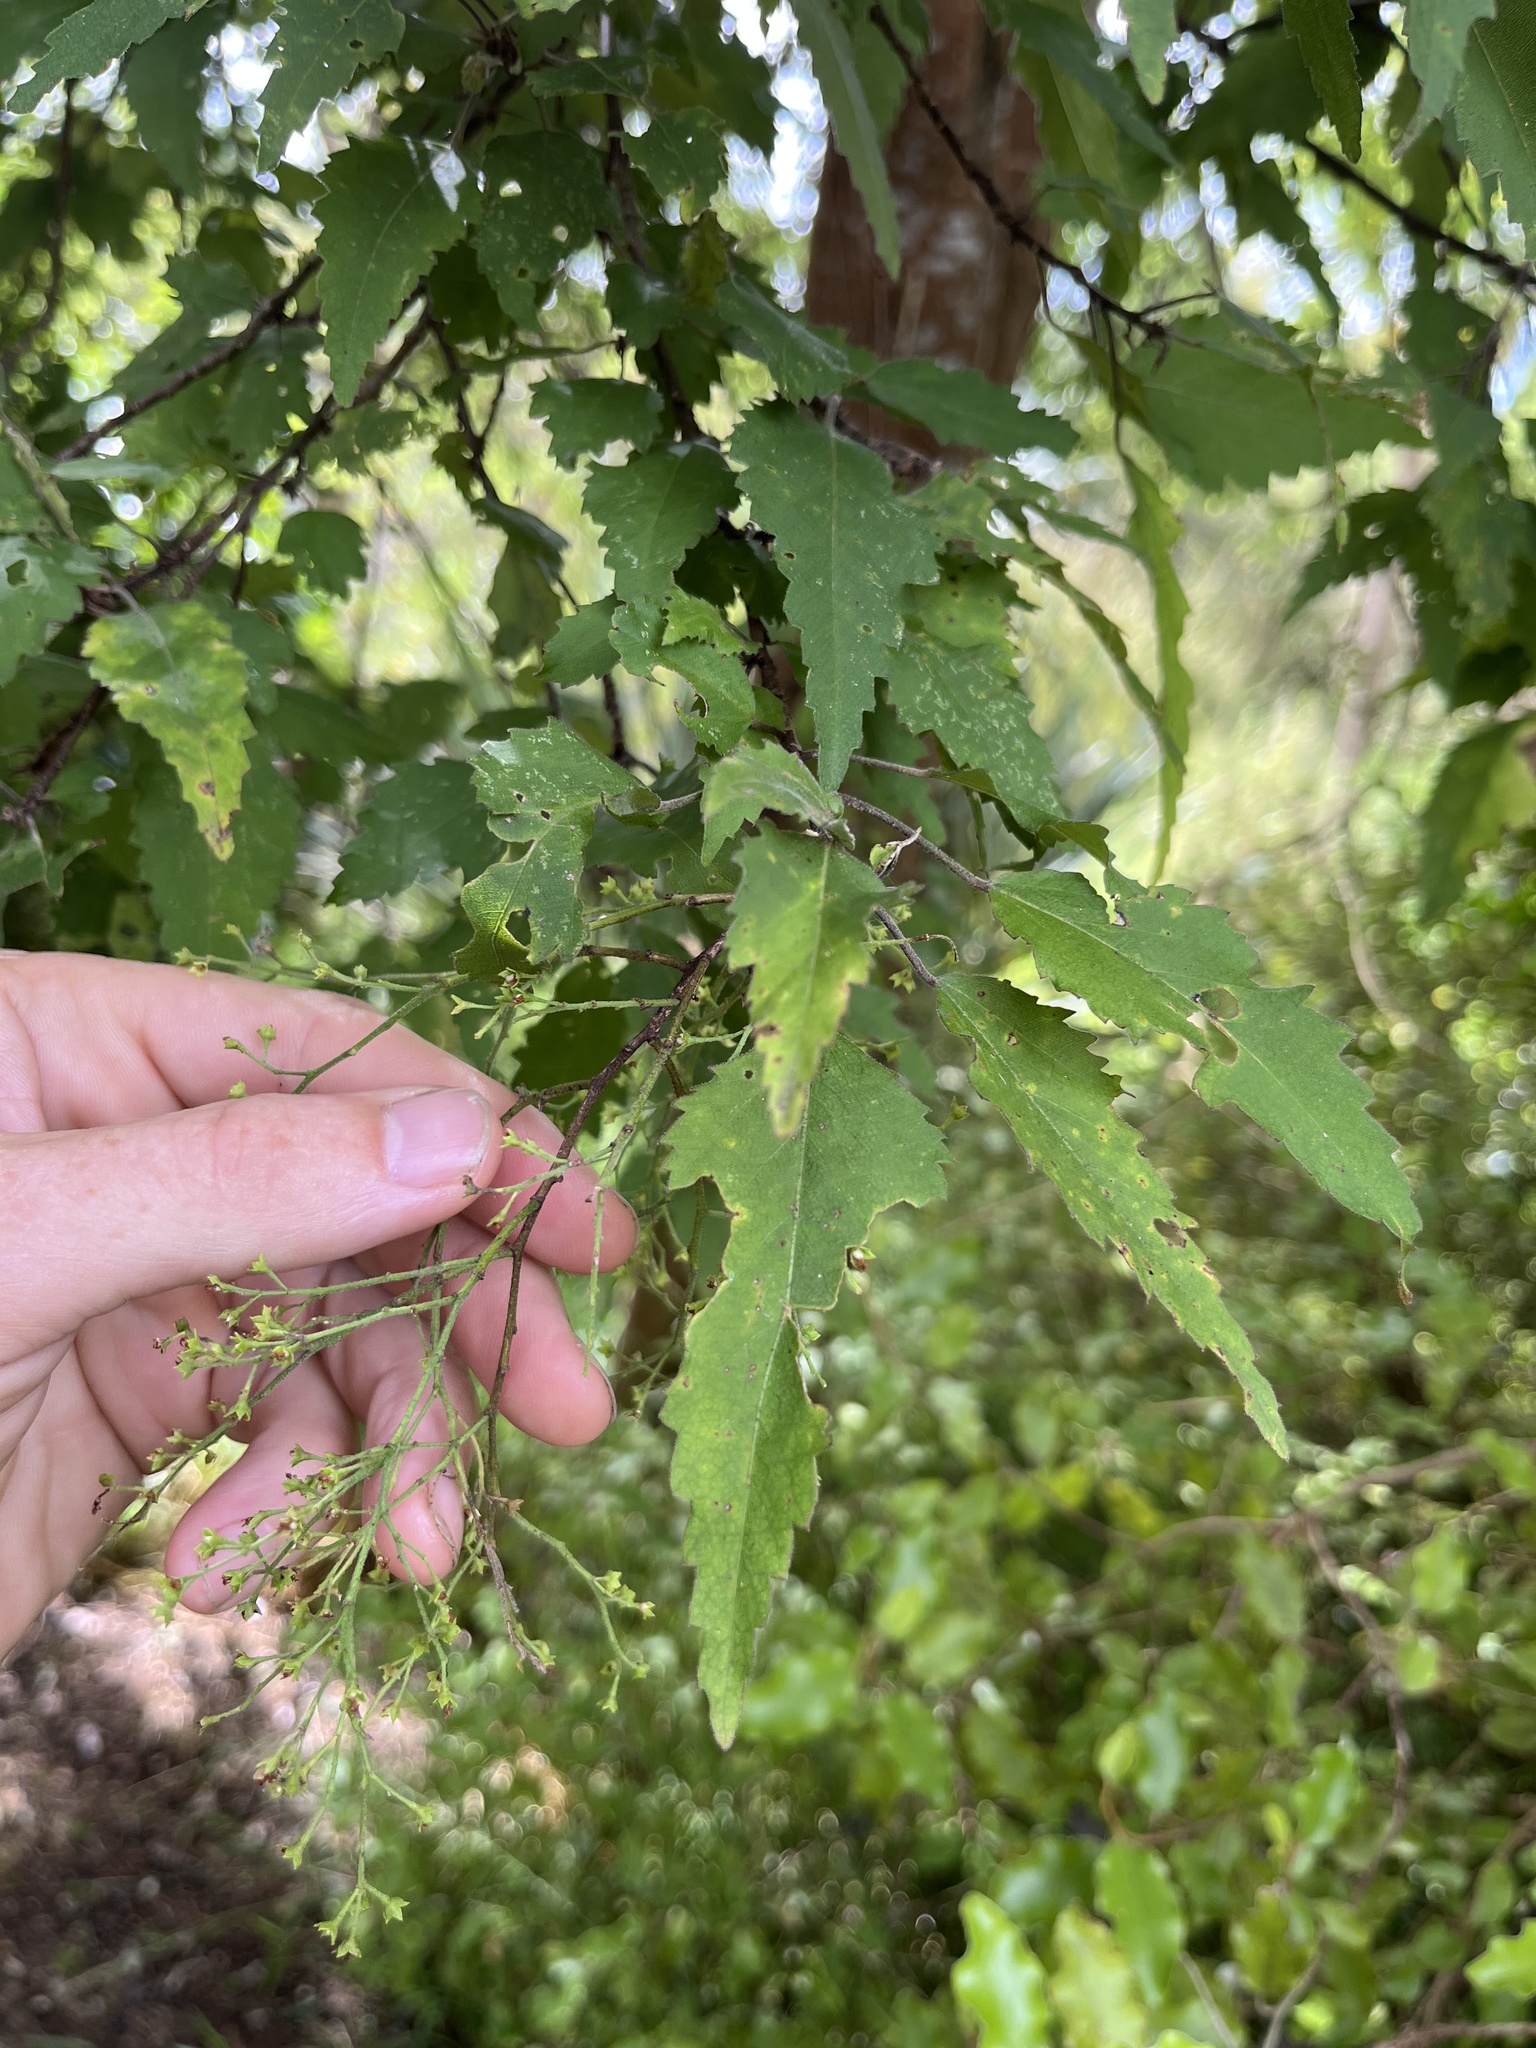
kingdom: Plantae
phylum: Tracheophyta
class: Magnoliopsida
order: Malvales
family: Malvaceae
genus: Hoheria
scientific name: Hoheria sexstylosa
